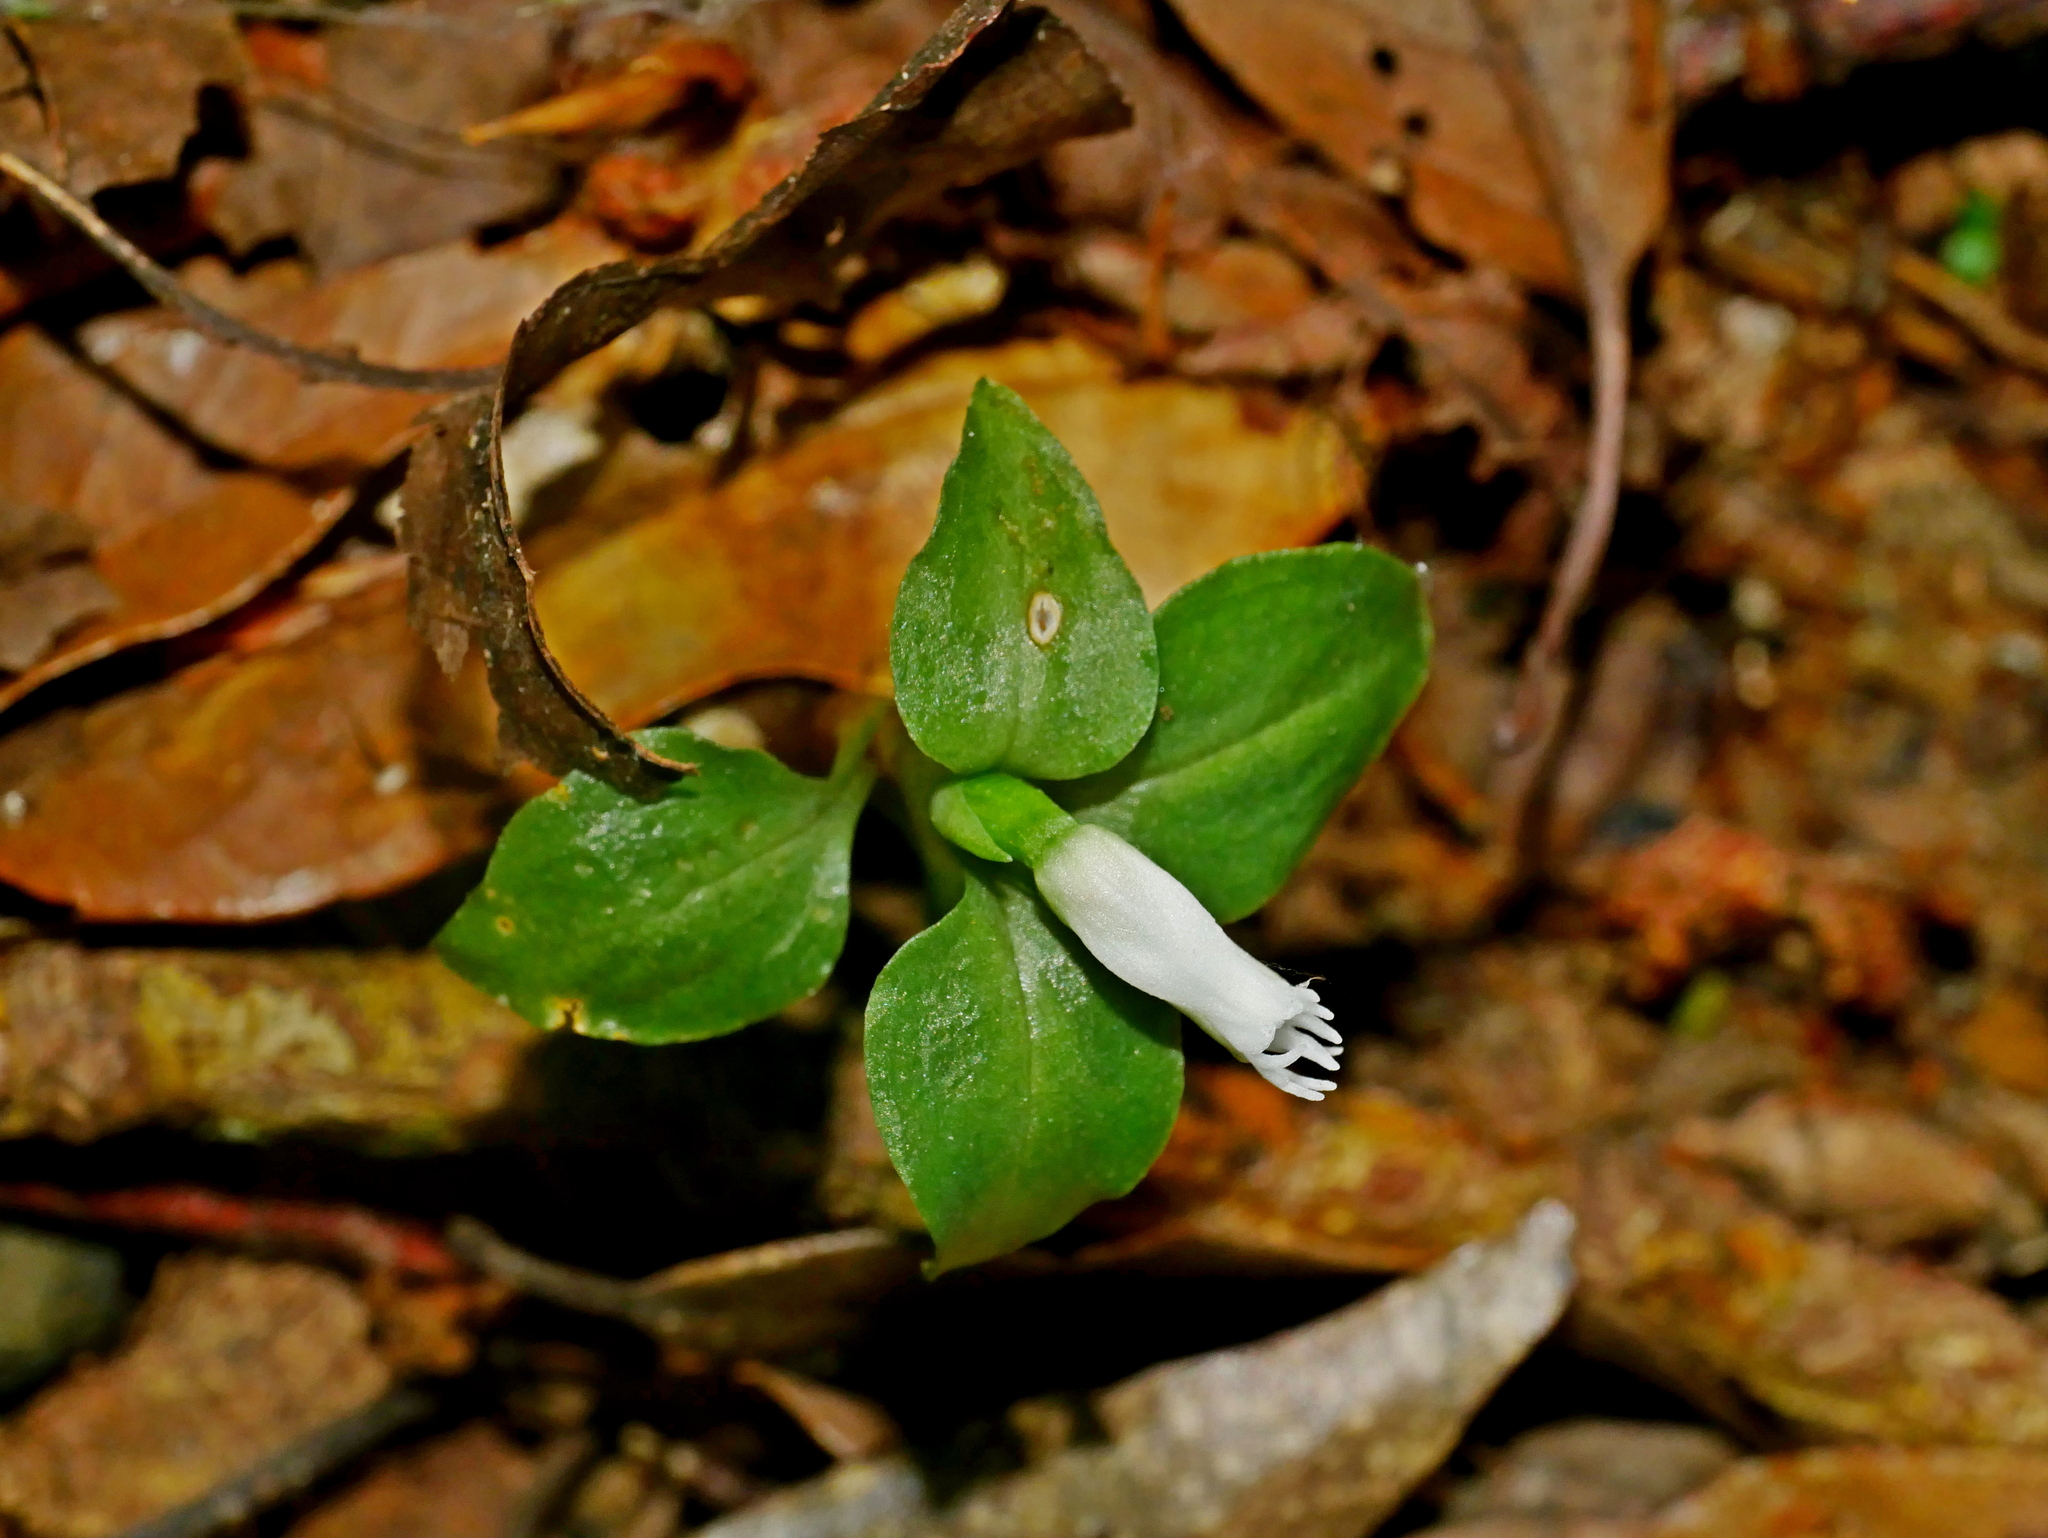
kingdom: Plantae
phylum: Tracheophyta
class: Liliopsida
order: Asparagales
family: Orchidaceae
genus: Cheirostylis
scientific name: Cheirostylis octodactyla
